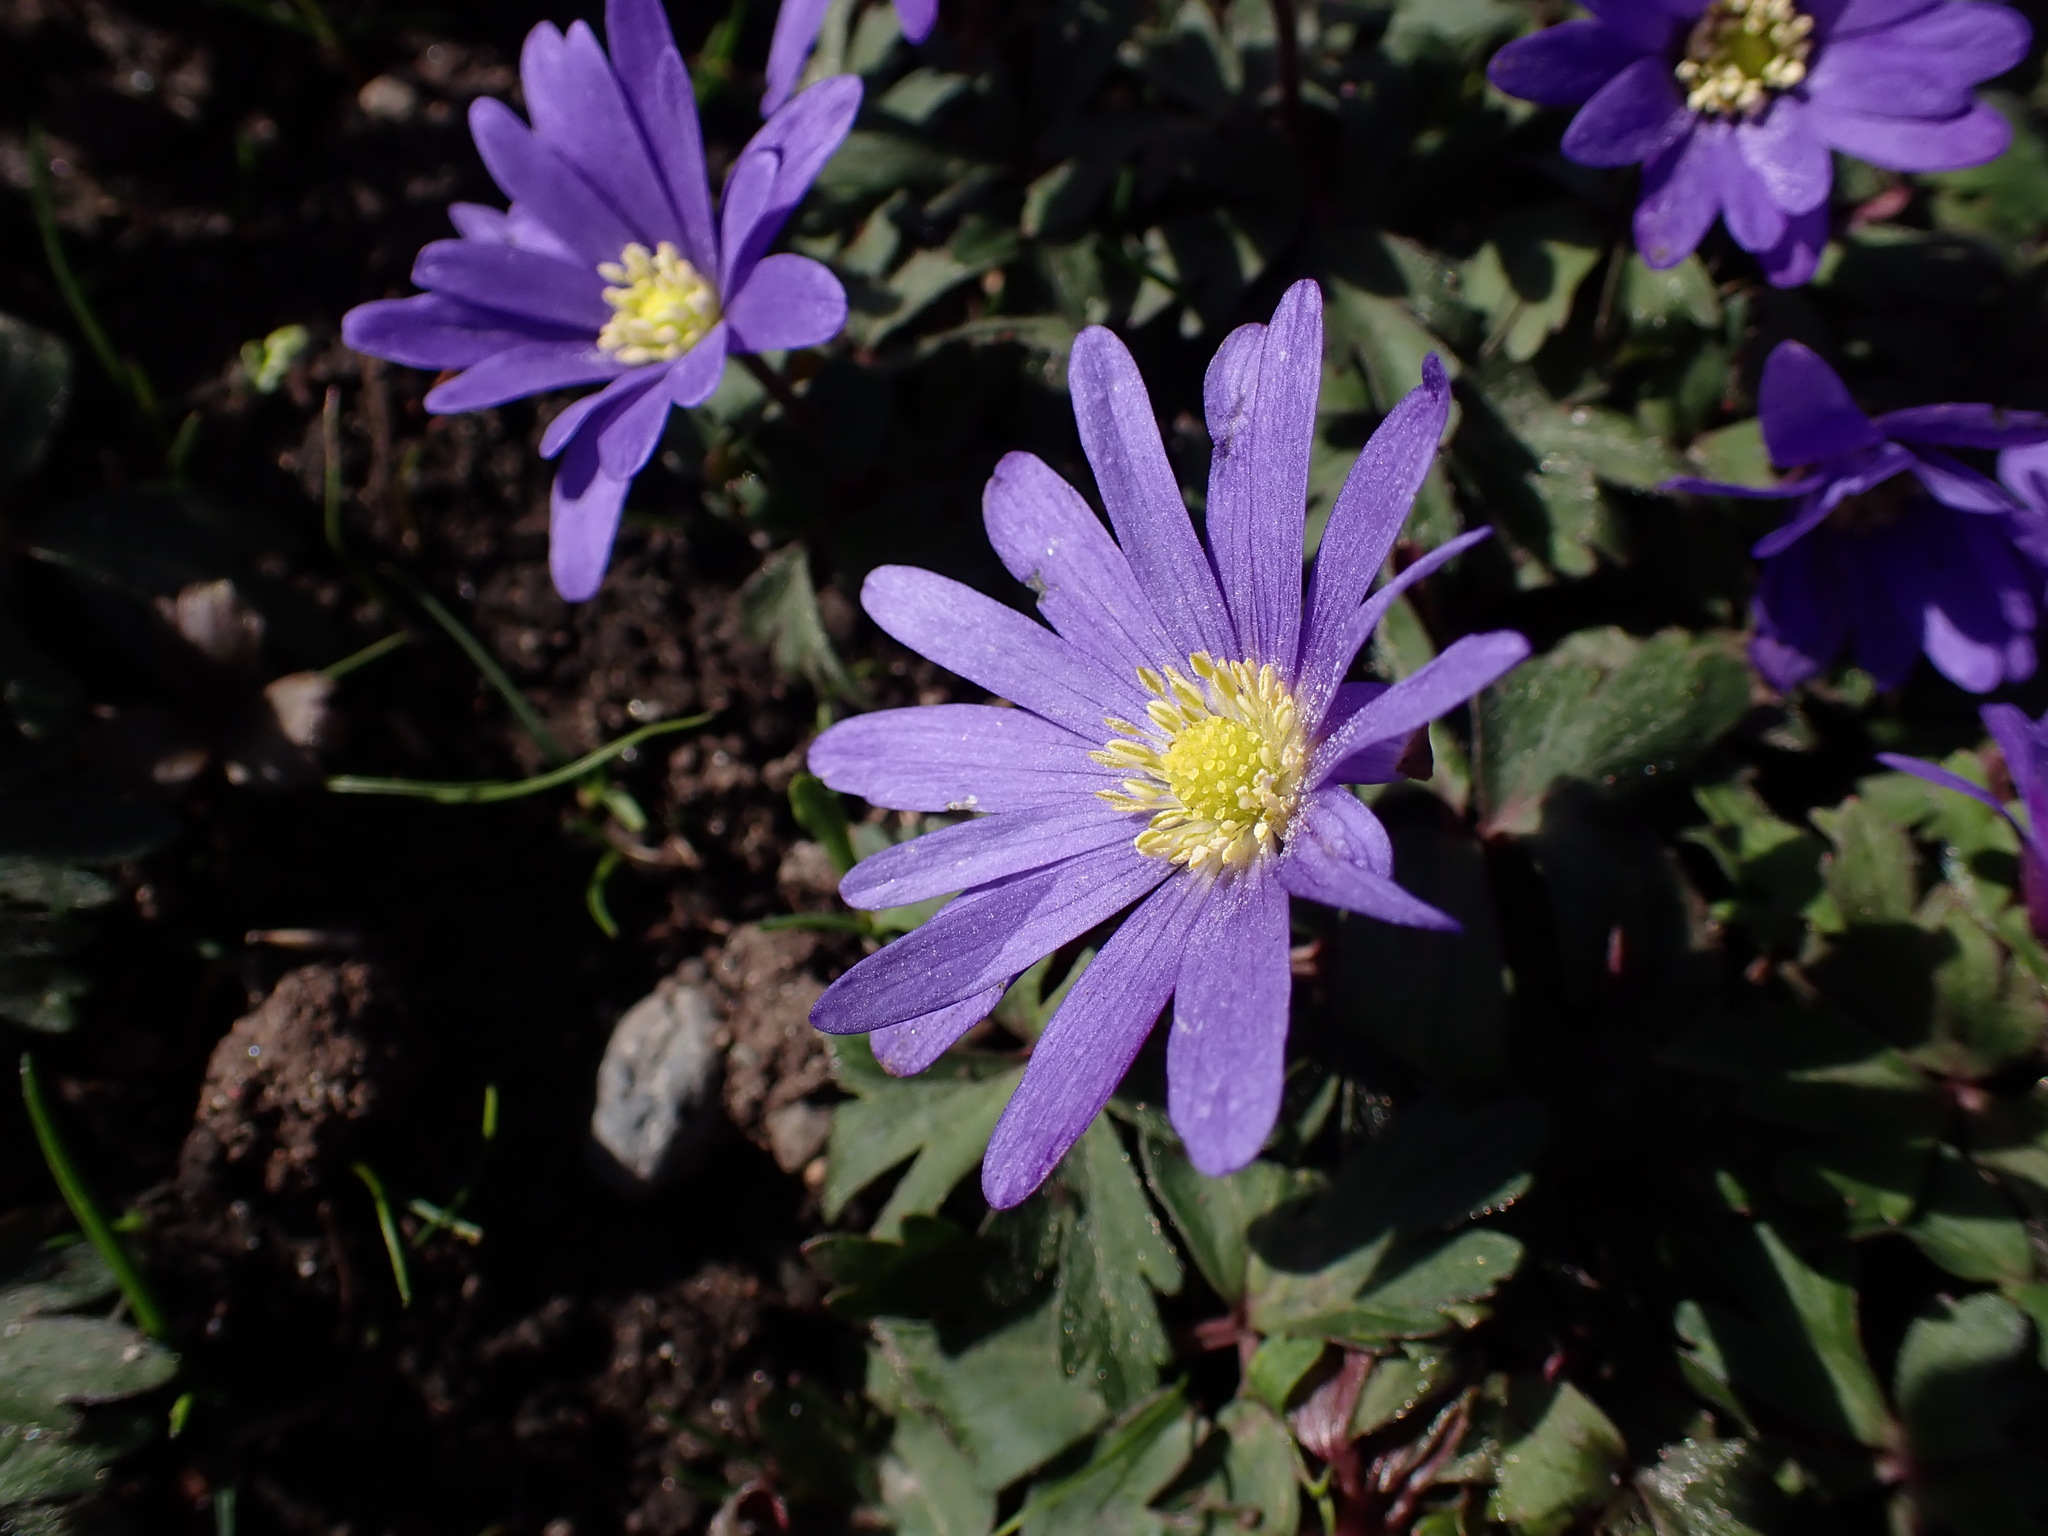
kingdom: Plantae
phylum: Tracheophyta
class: Magnoliopsida
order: Ranunculales
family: Ranunculaceae
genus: Anemone
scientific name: Anemone blanda
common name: Balkan anemone
